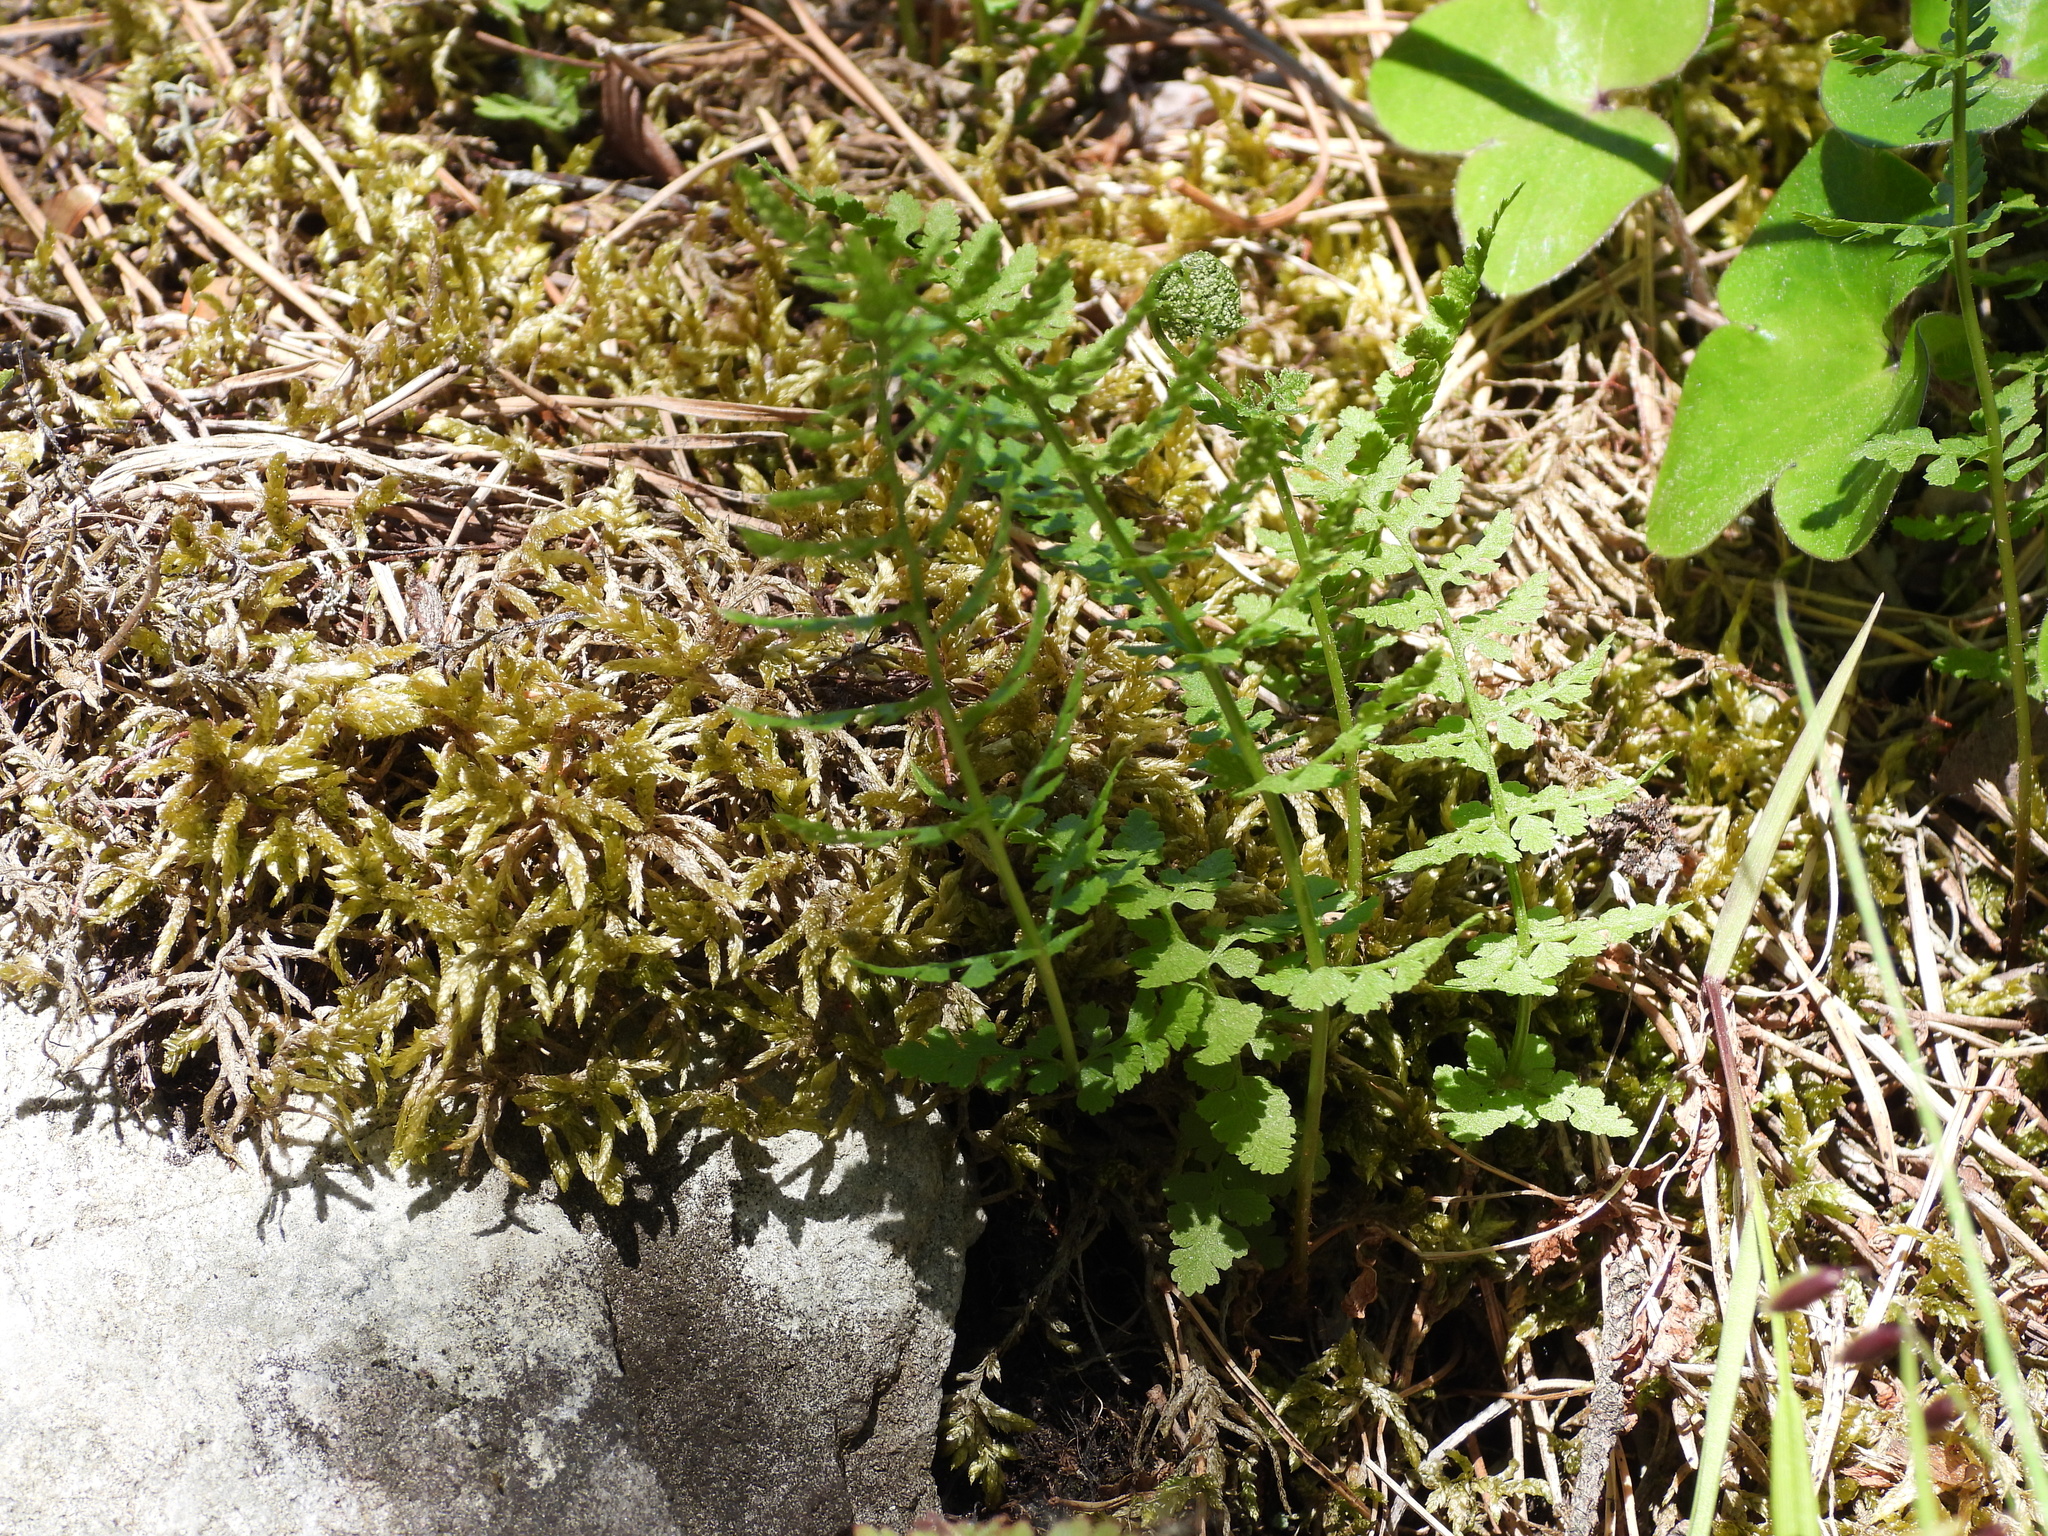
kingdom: Plantae
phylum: Tracheophyta
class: Polypodiopsida
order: Polypodiales
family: Cystopteridaceae
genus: Cystopteris
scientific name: Cystopteris fragilis
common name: Brittle bladder fern
